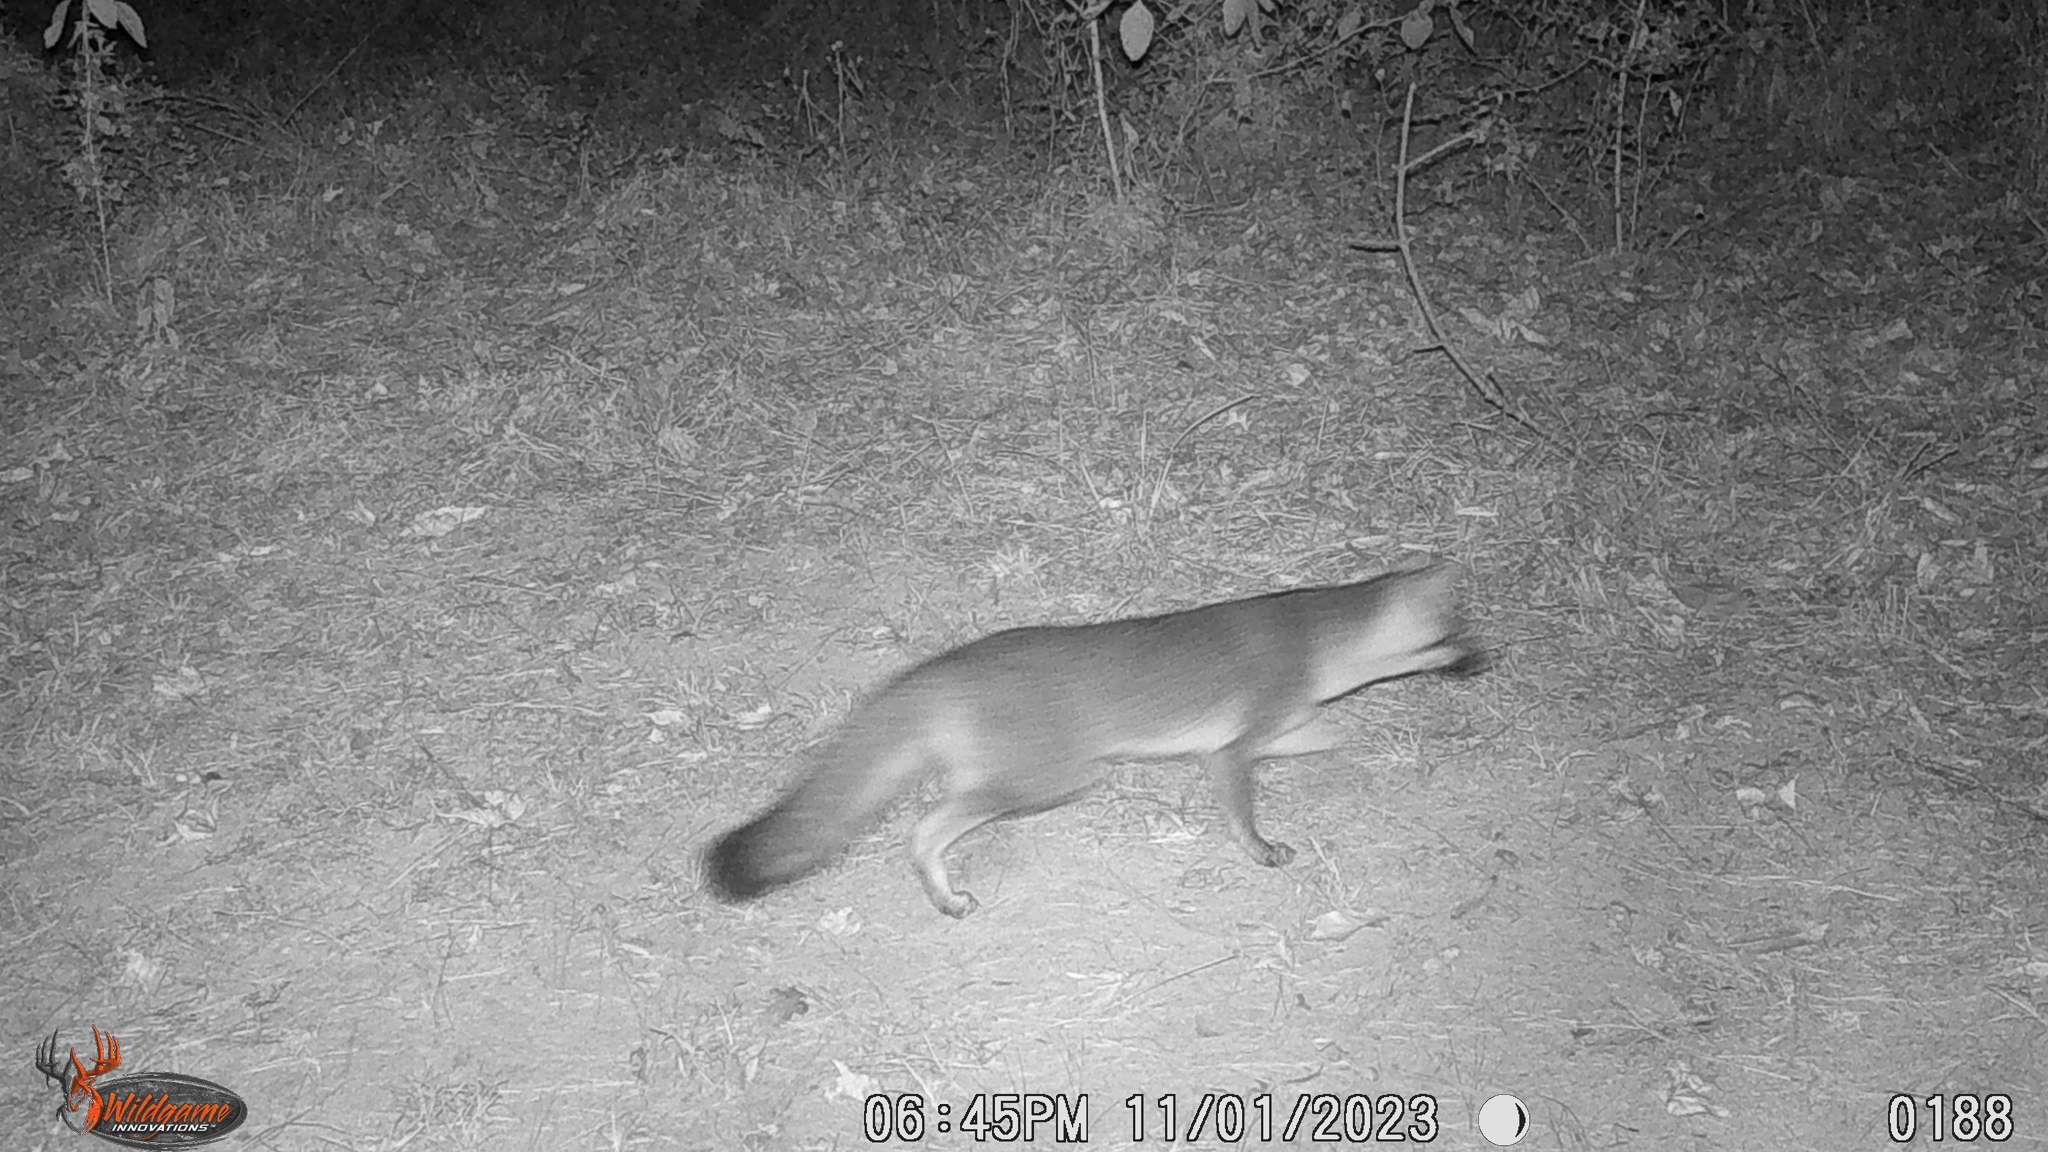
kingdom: Animalia
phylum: Chordata
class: Mammalia
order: Carnivora
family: Canidae
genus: Urocyon
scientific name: Urocyon cinereoargenteus
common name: Gray fox
